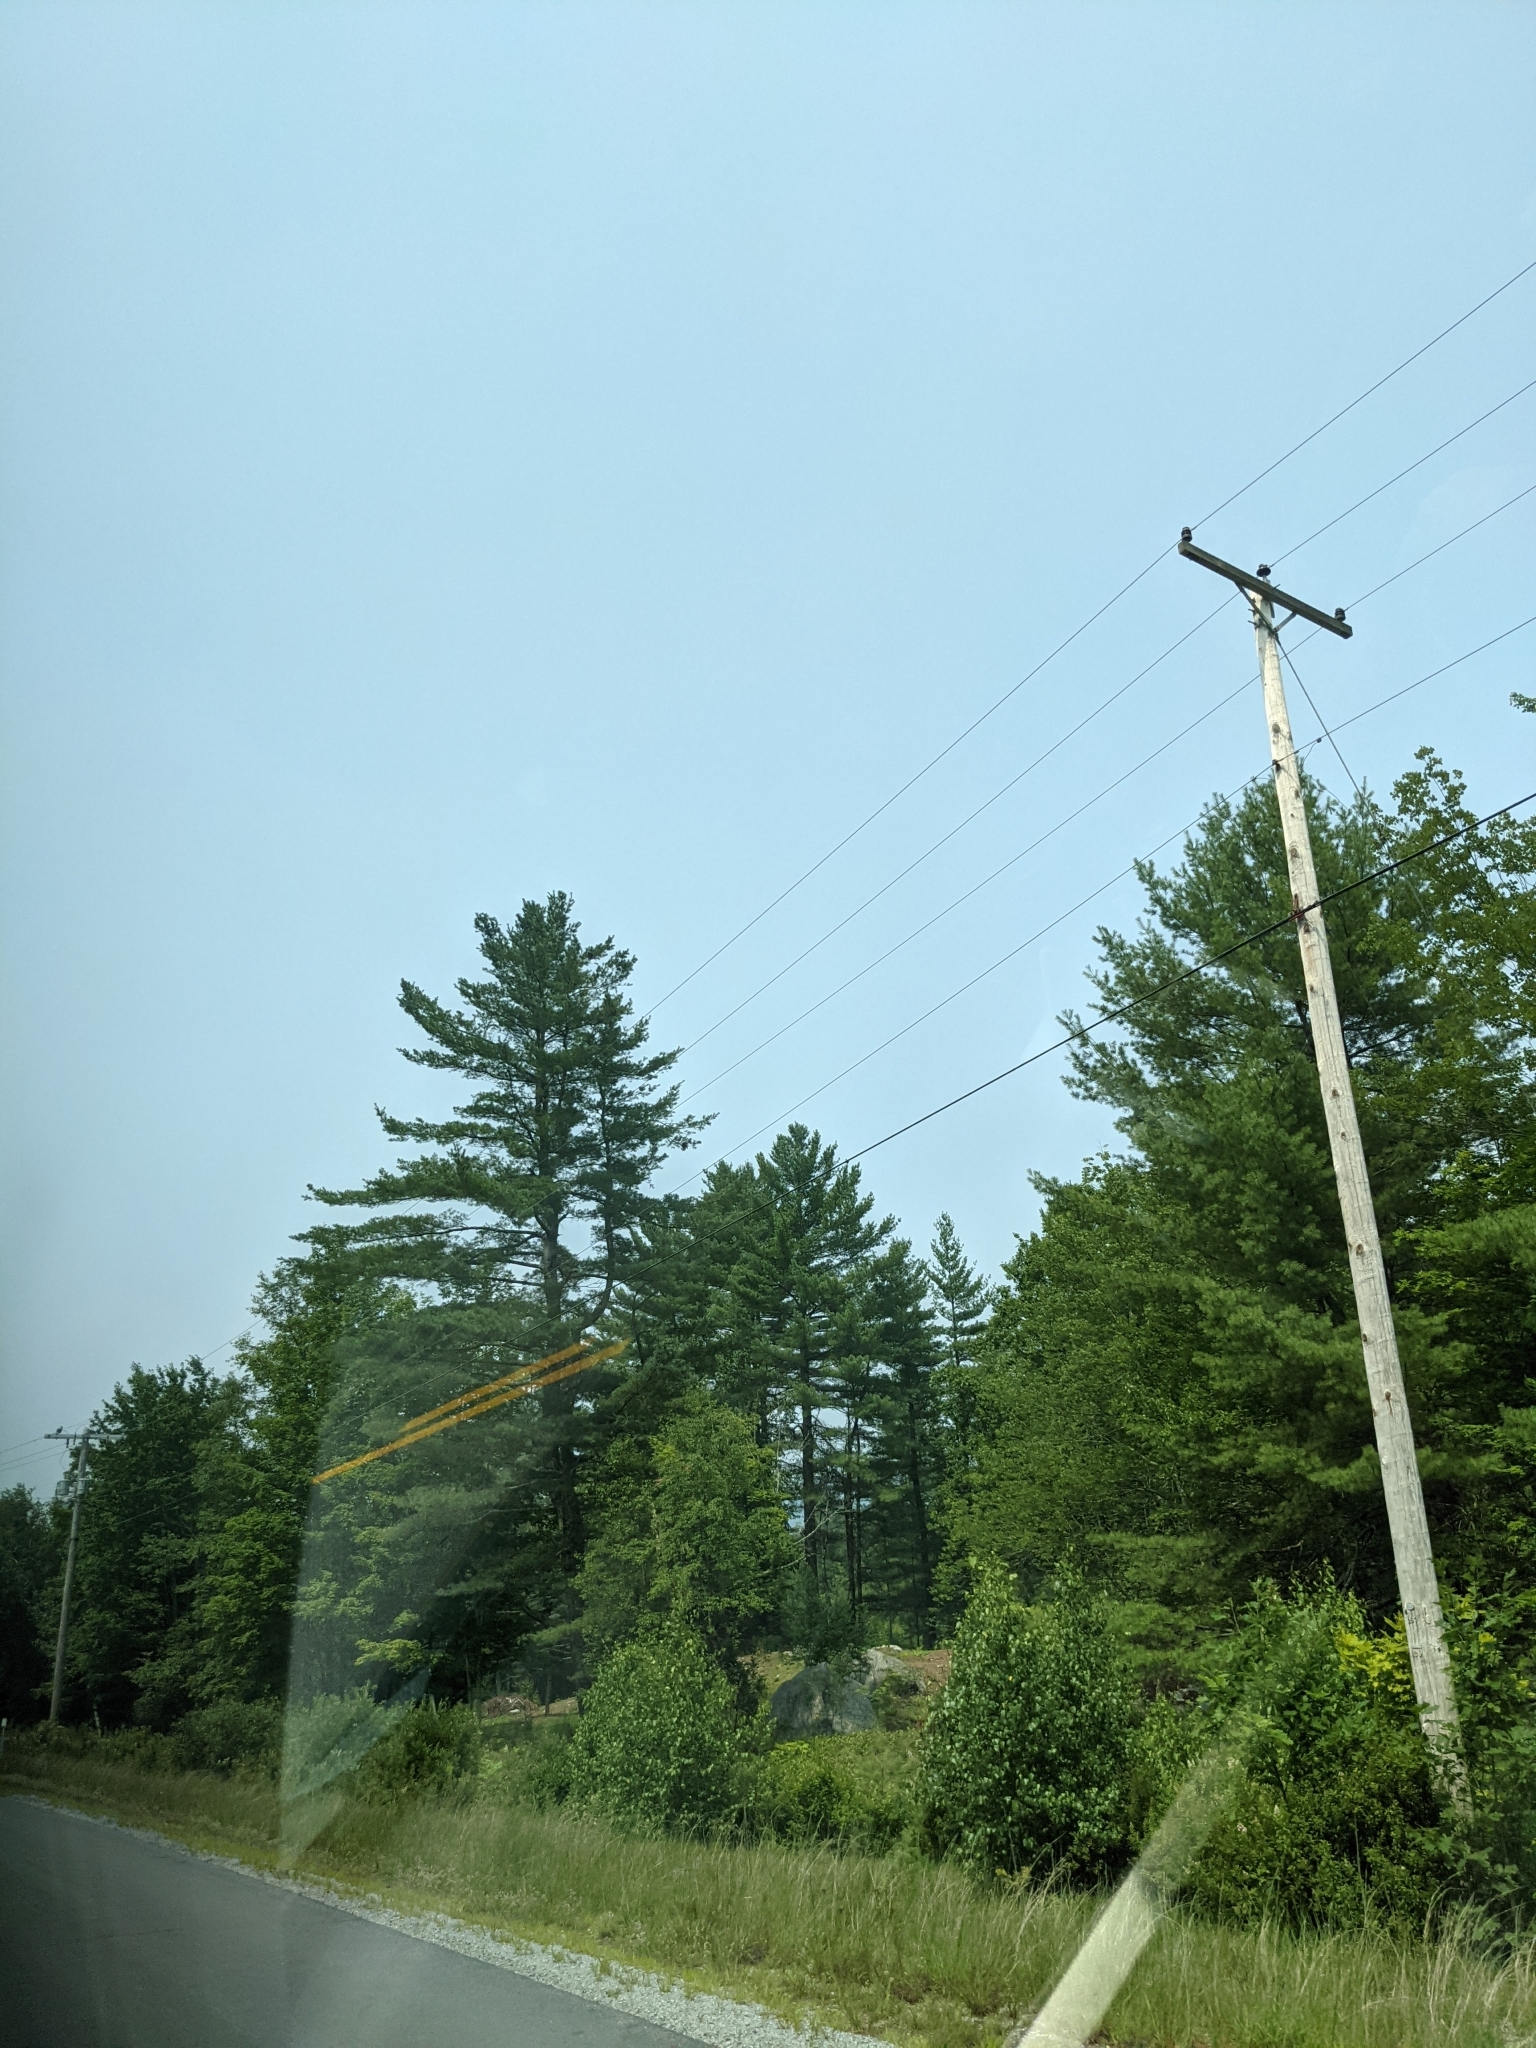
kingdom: Plantae
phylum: Tracheophyta
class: Pinopsida
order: Pinales
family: Pinaceae
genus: Pinus
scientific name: Pinus strobus
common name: Weymouth pine
